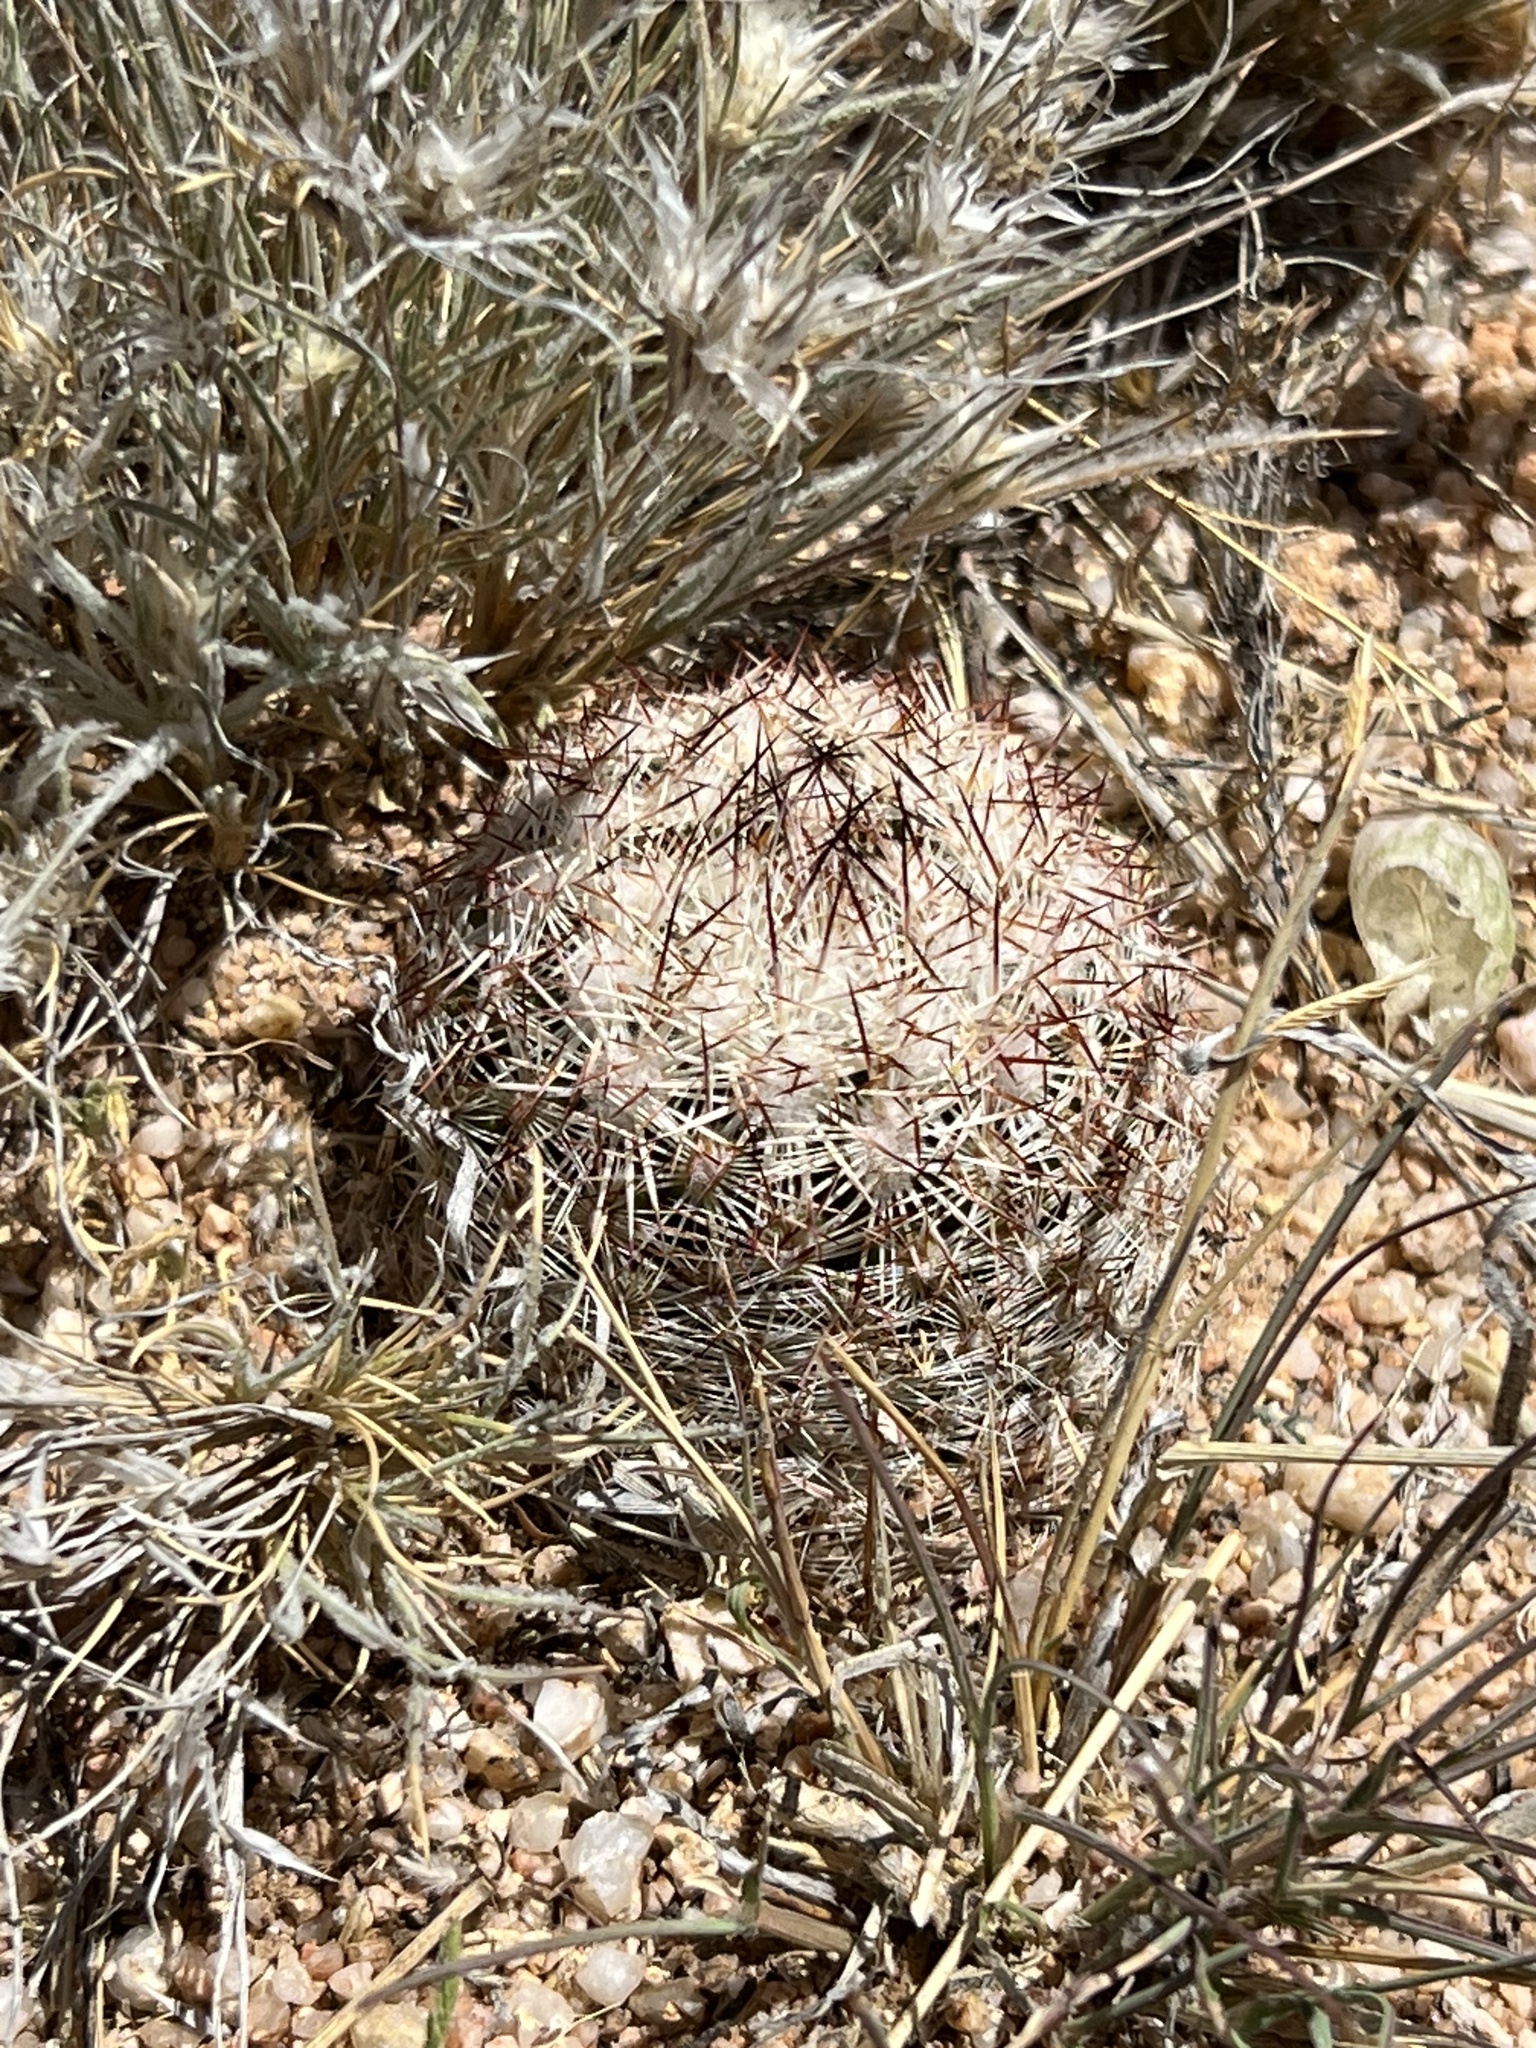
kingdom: Plantae
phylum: Tracheophyta
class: Magnoliopsida
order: Caryophyllales
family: Cactaceae
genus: Pelecyphora
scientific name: Pelecyphora vivipara
